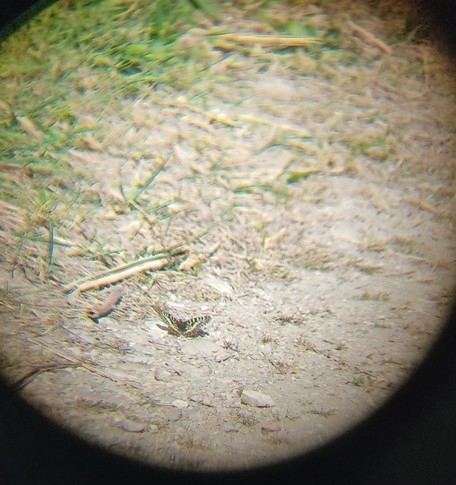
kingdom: Animalia
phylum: Arthropoda
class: Insecta
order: Lepidoptera
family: Papilionidae
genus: Zerynthia
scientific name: Zerynthia polyxena
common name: Southern festoon
